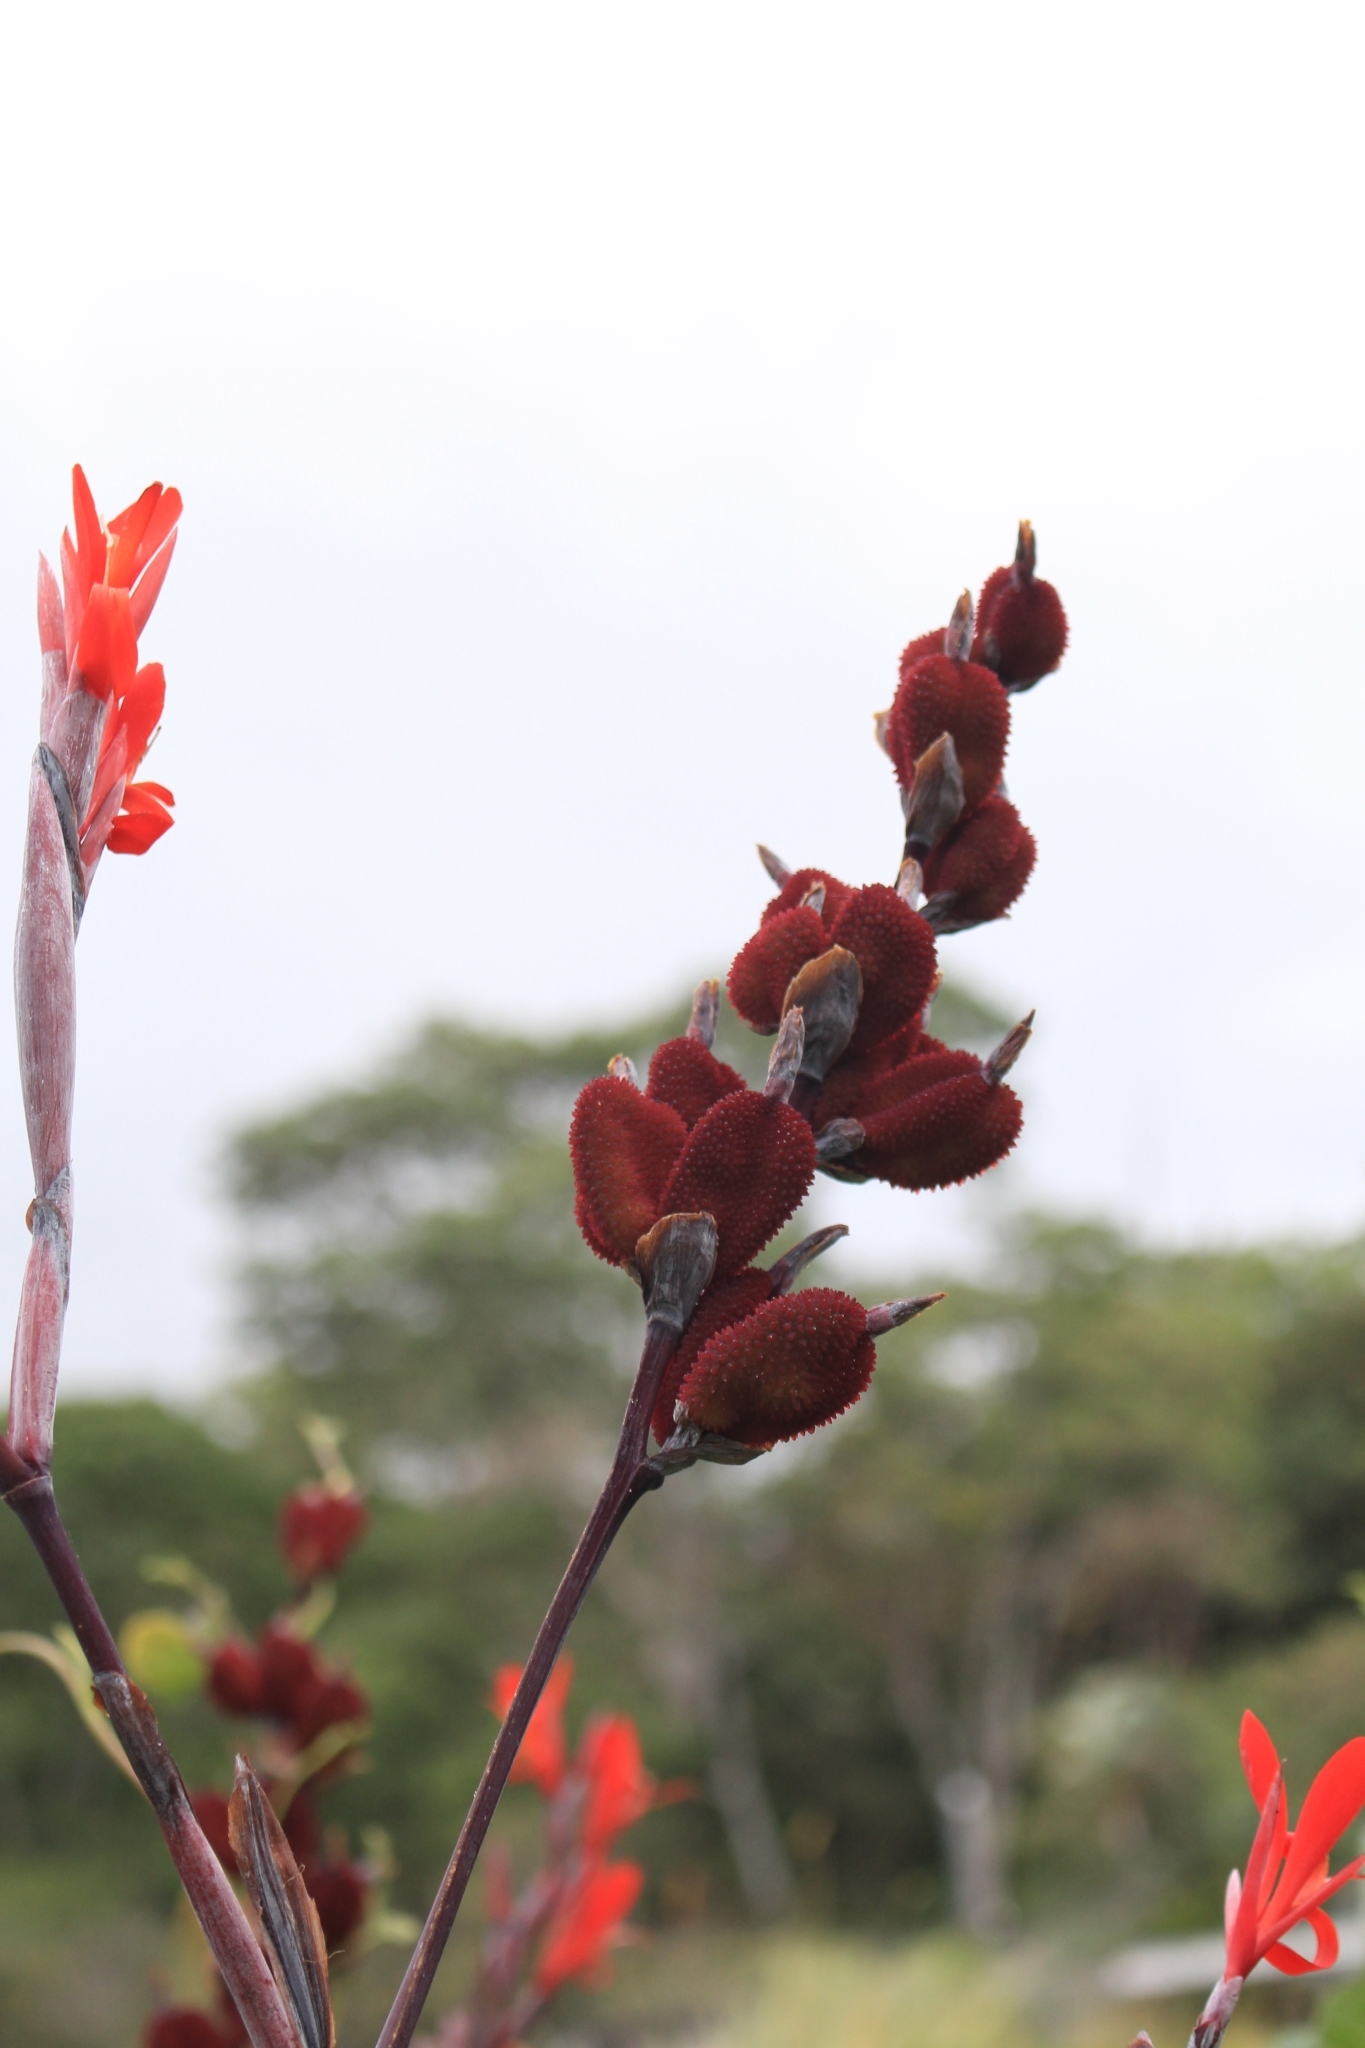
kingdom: Plantae
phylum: Tracheophyta
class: Liliopsida
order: Zingiberales
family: Cannaceae
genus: Canna
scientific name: Canna indica
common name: Indian shot
